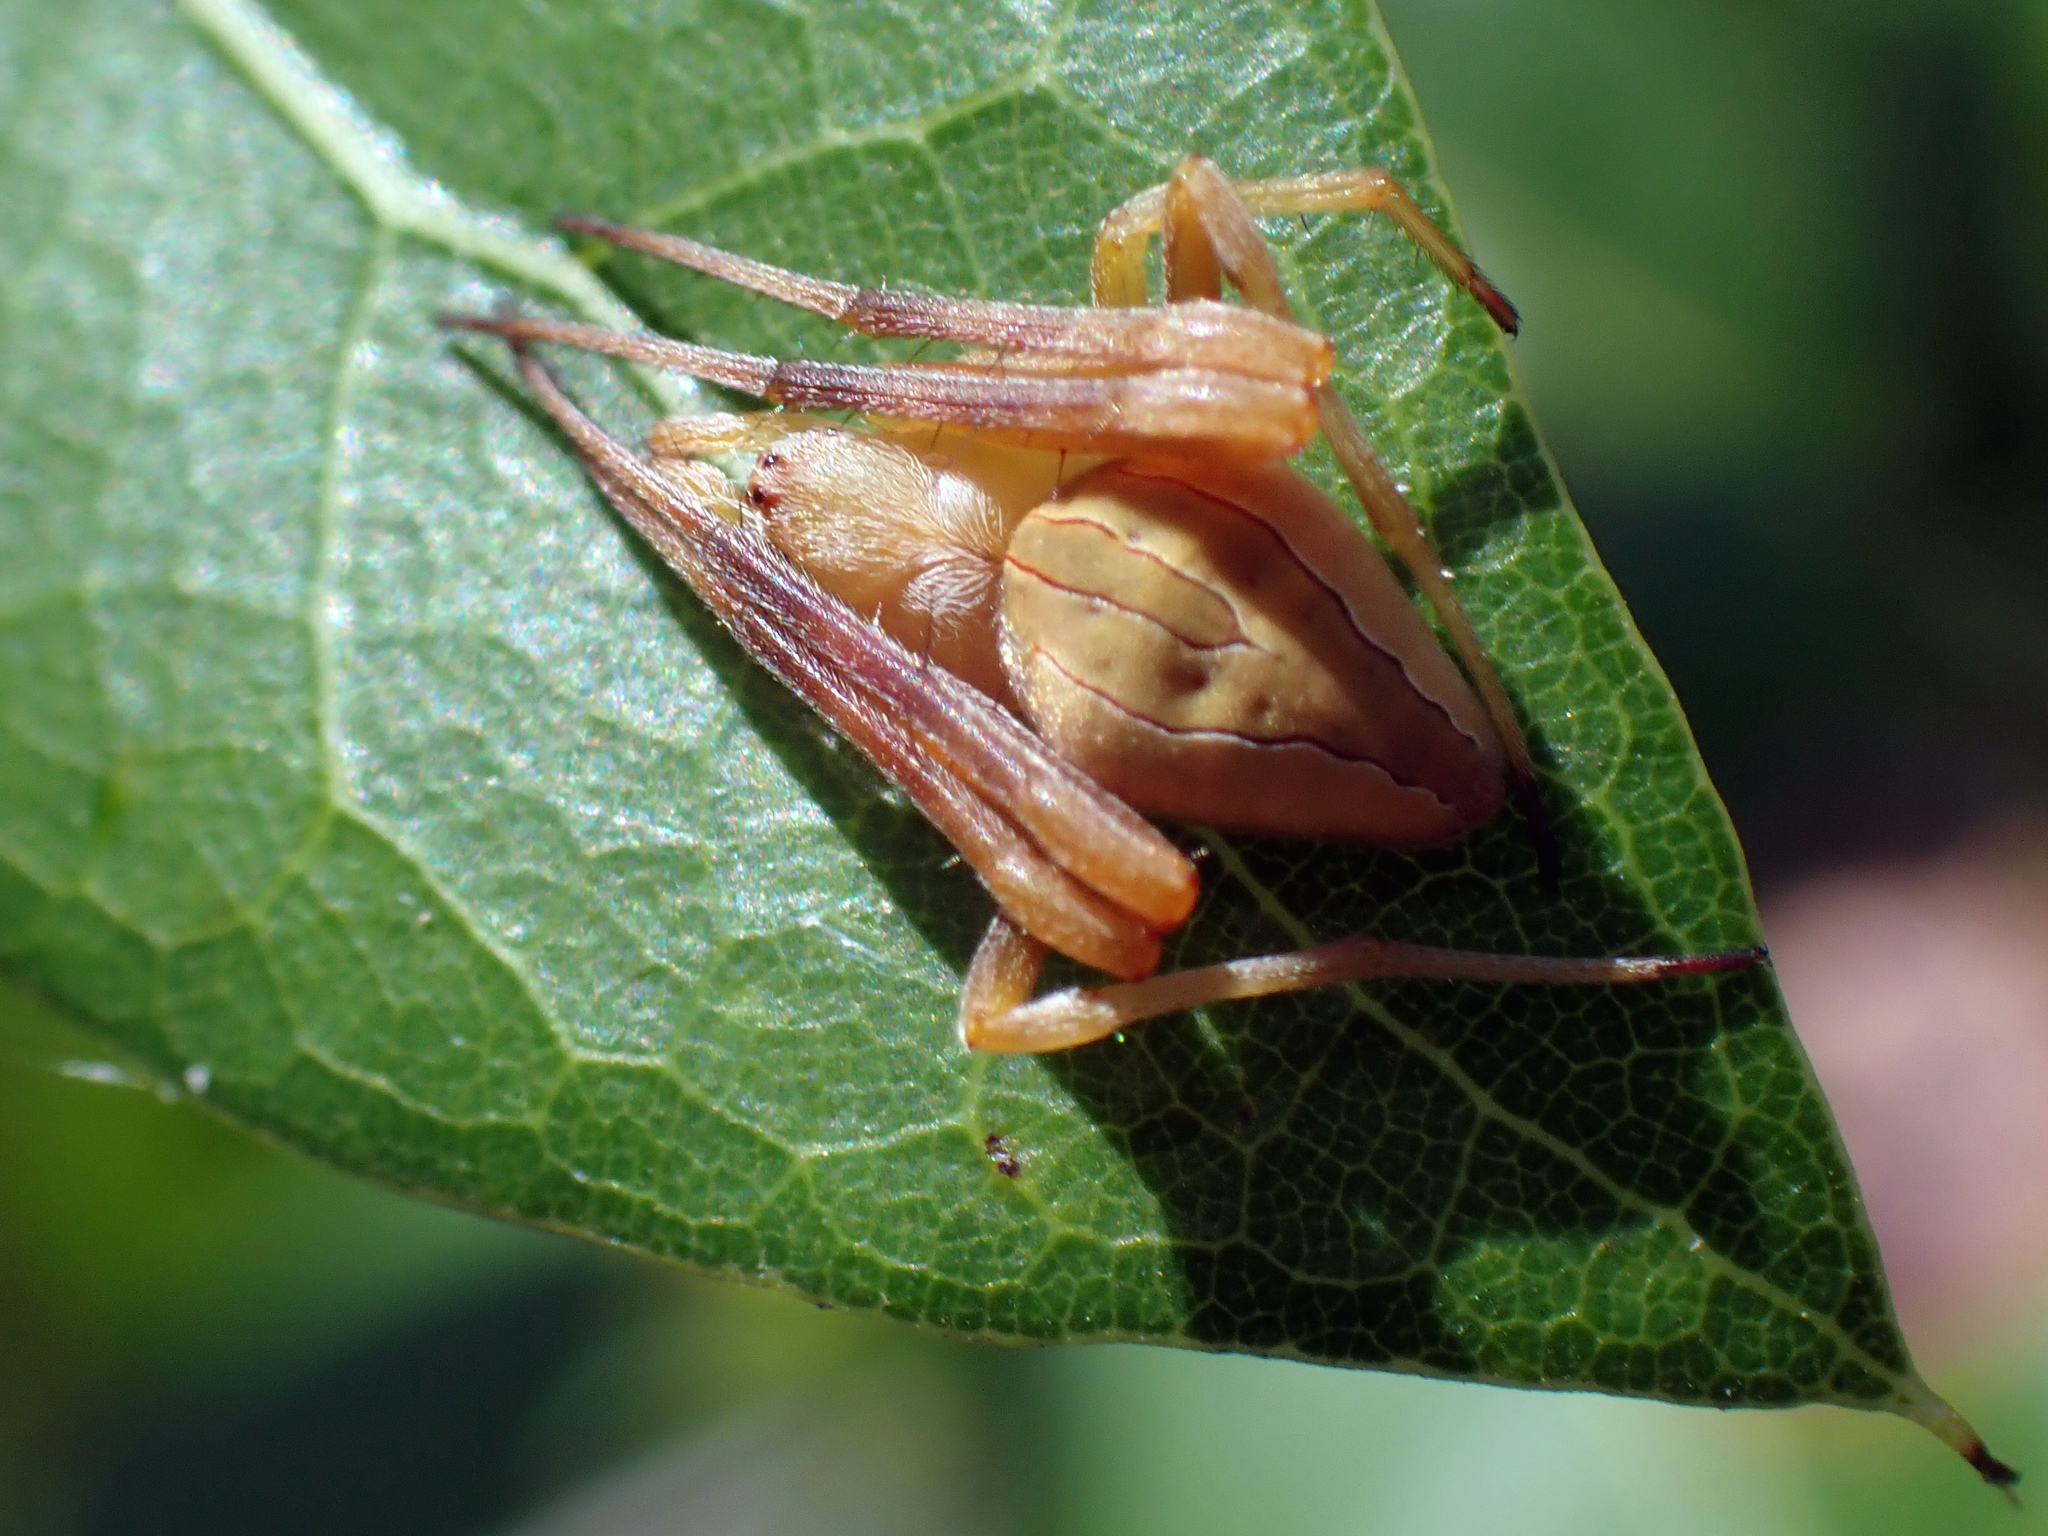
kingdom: Animalia
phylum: Arthropoda
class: Arachnida
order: Araneae
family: Araneidae
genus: Acacesia
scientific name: Acacesia hamata
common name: Orb weavers
